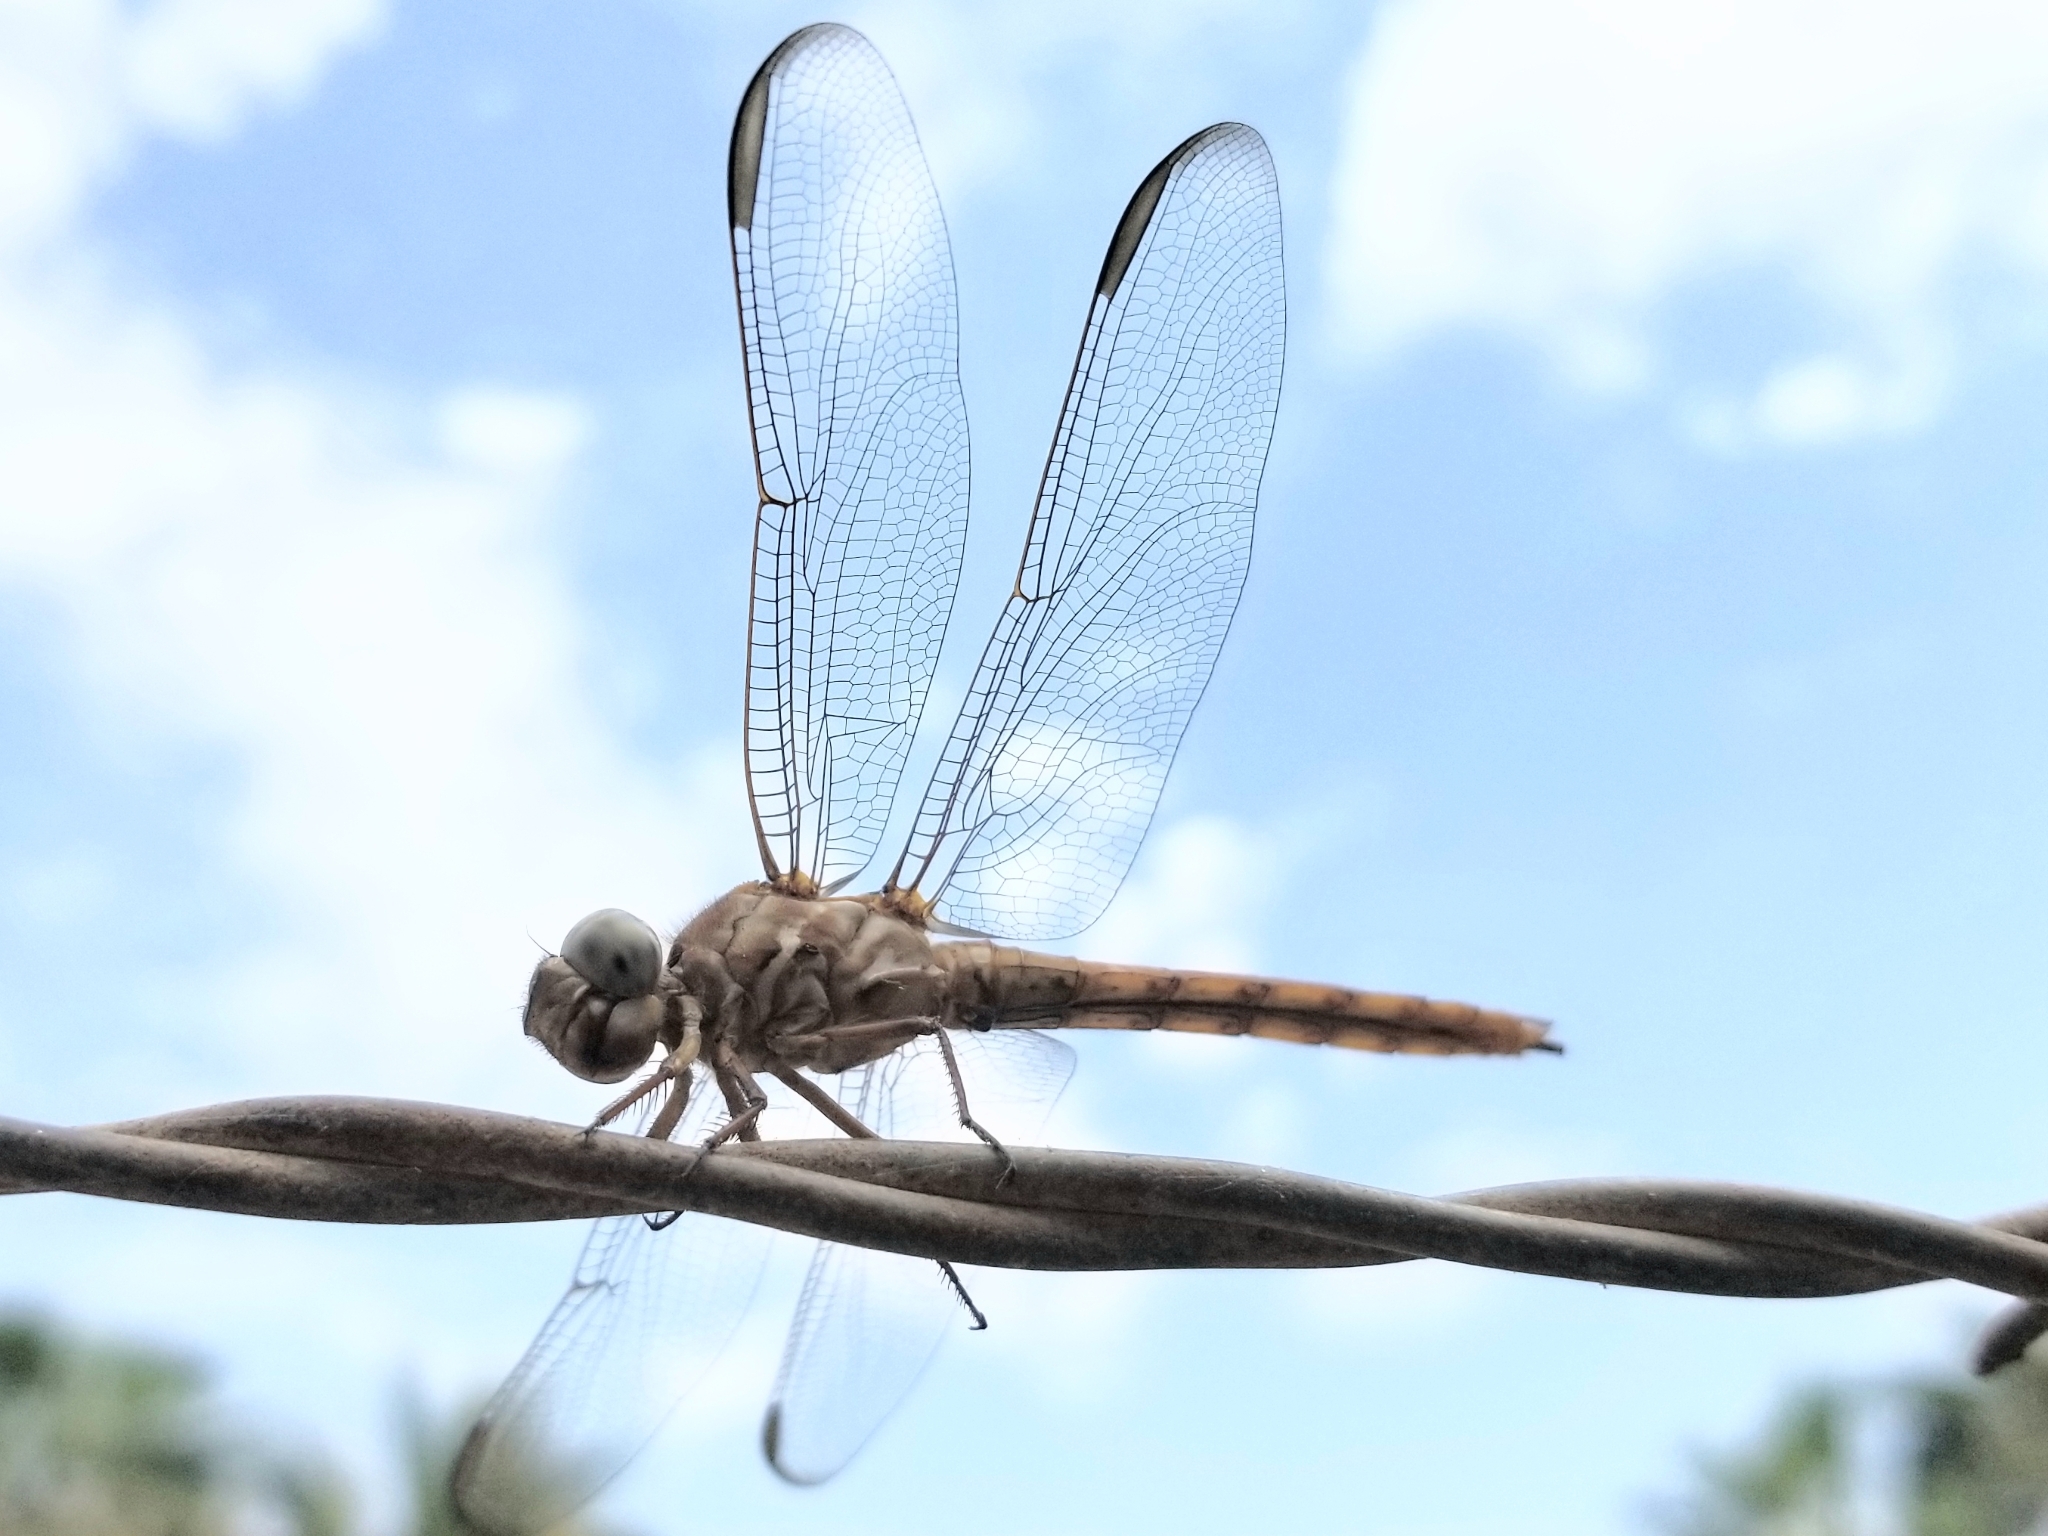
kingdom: Animalia
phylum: Arthropoda
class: Insecta
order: Odonata
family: Libellulidae
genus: Orthemis
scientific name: Orthemis ferruginea
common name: Roseate skimmer
